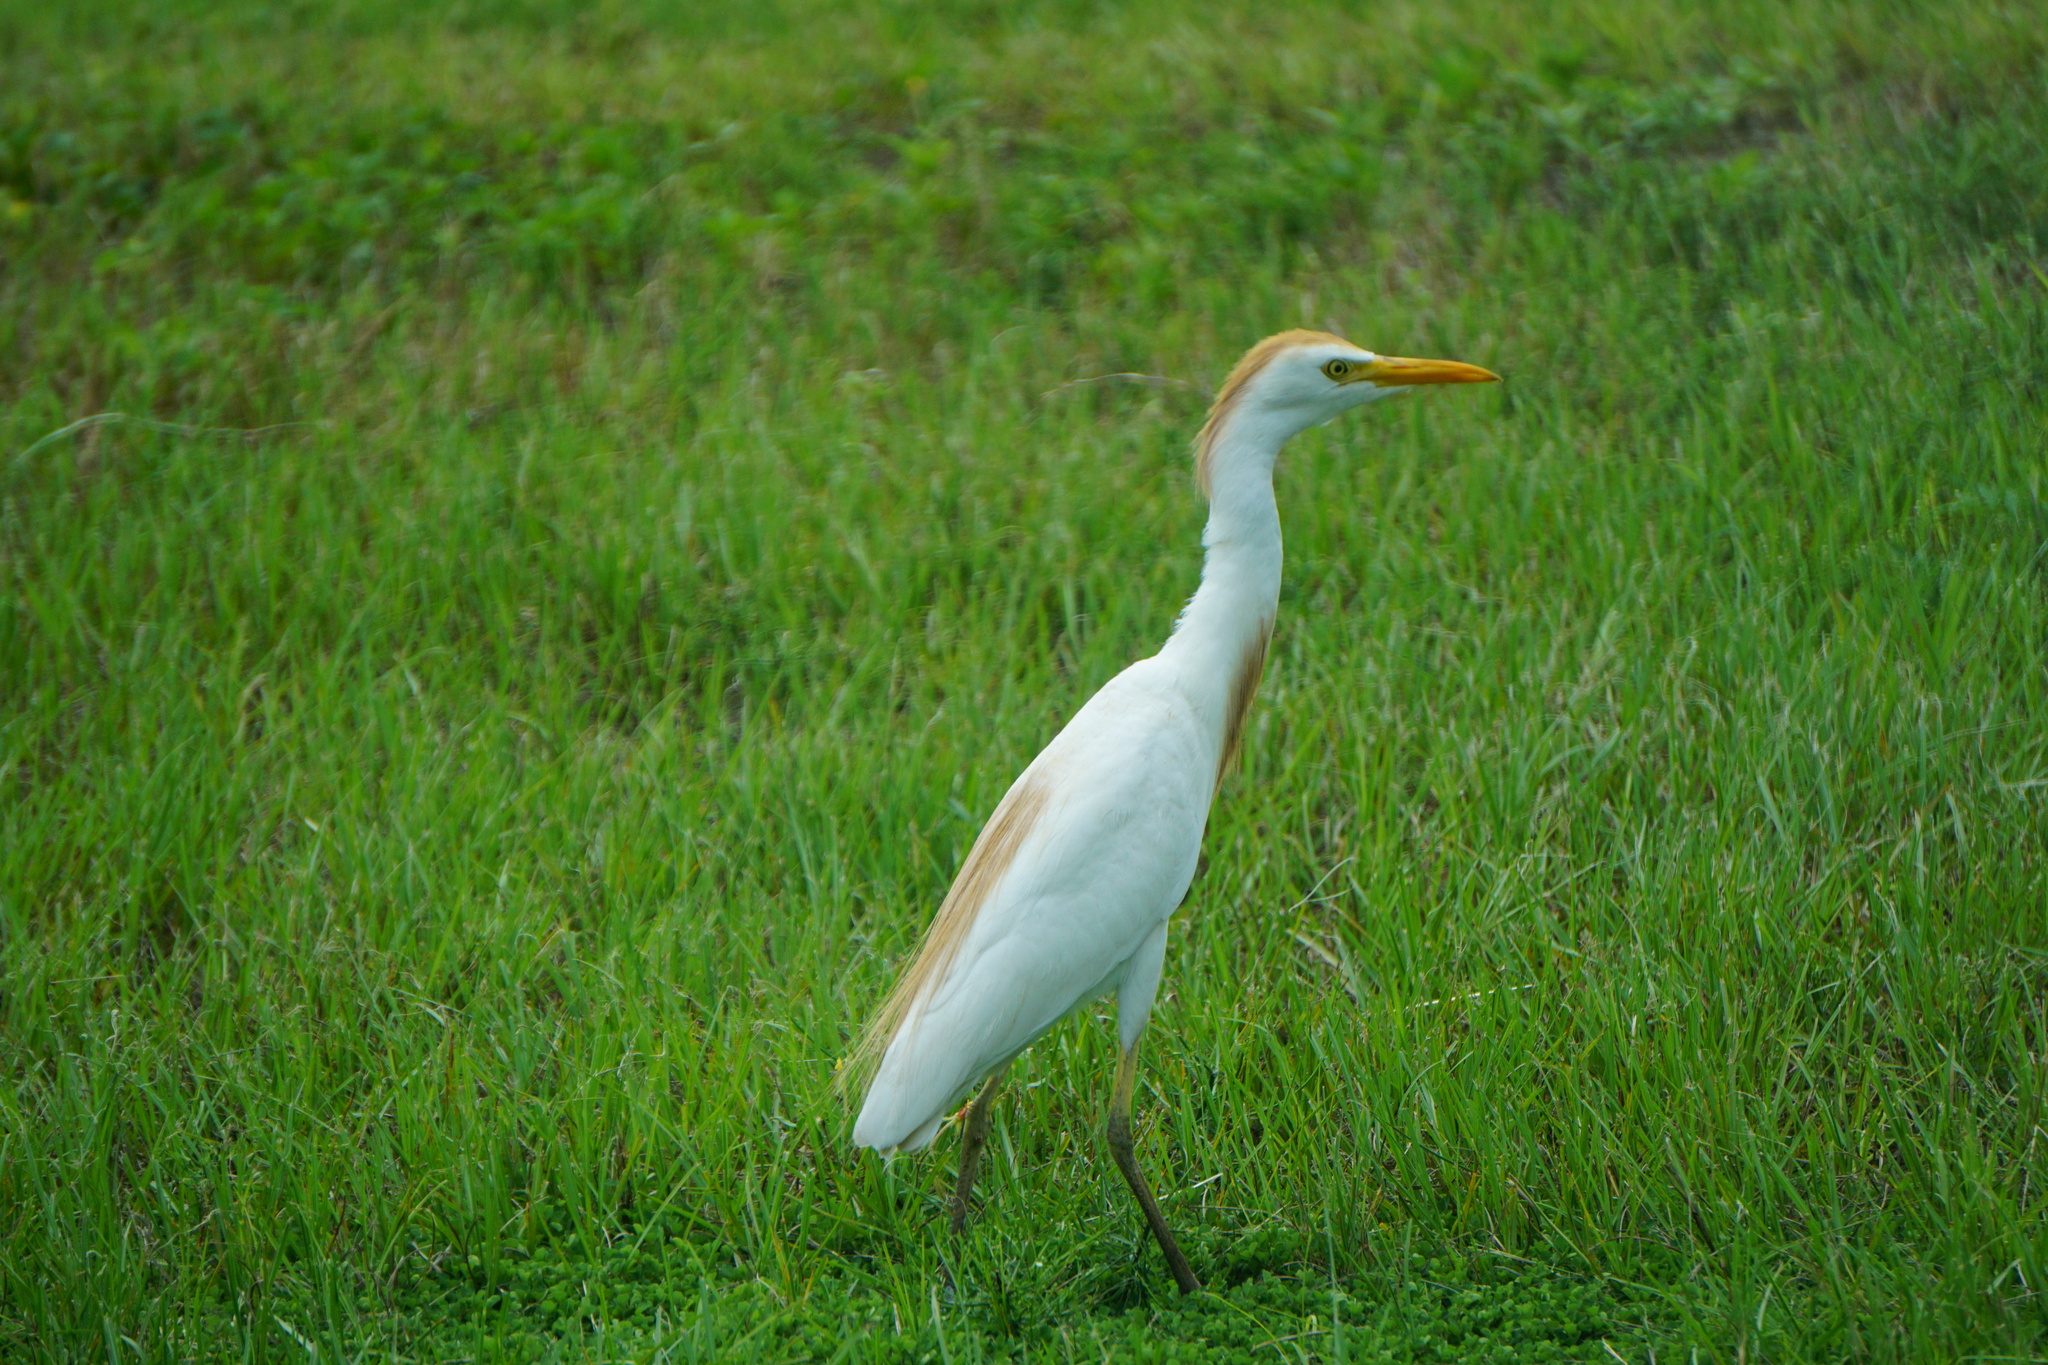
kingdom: Animalia
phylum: Chordata
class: Aves
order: Pelecaniformes
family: Ardeidae
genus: Bubulcus
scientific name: Bubulcus ibis
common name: Cattle egret
